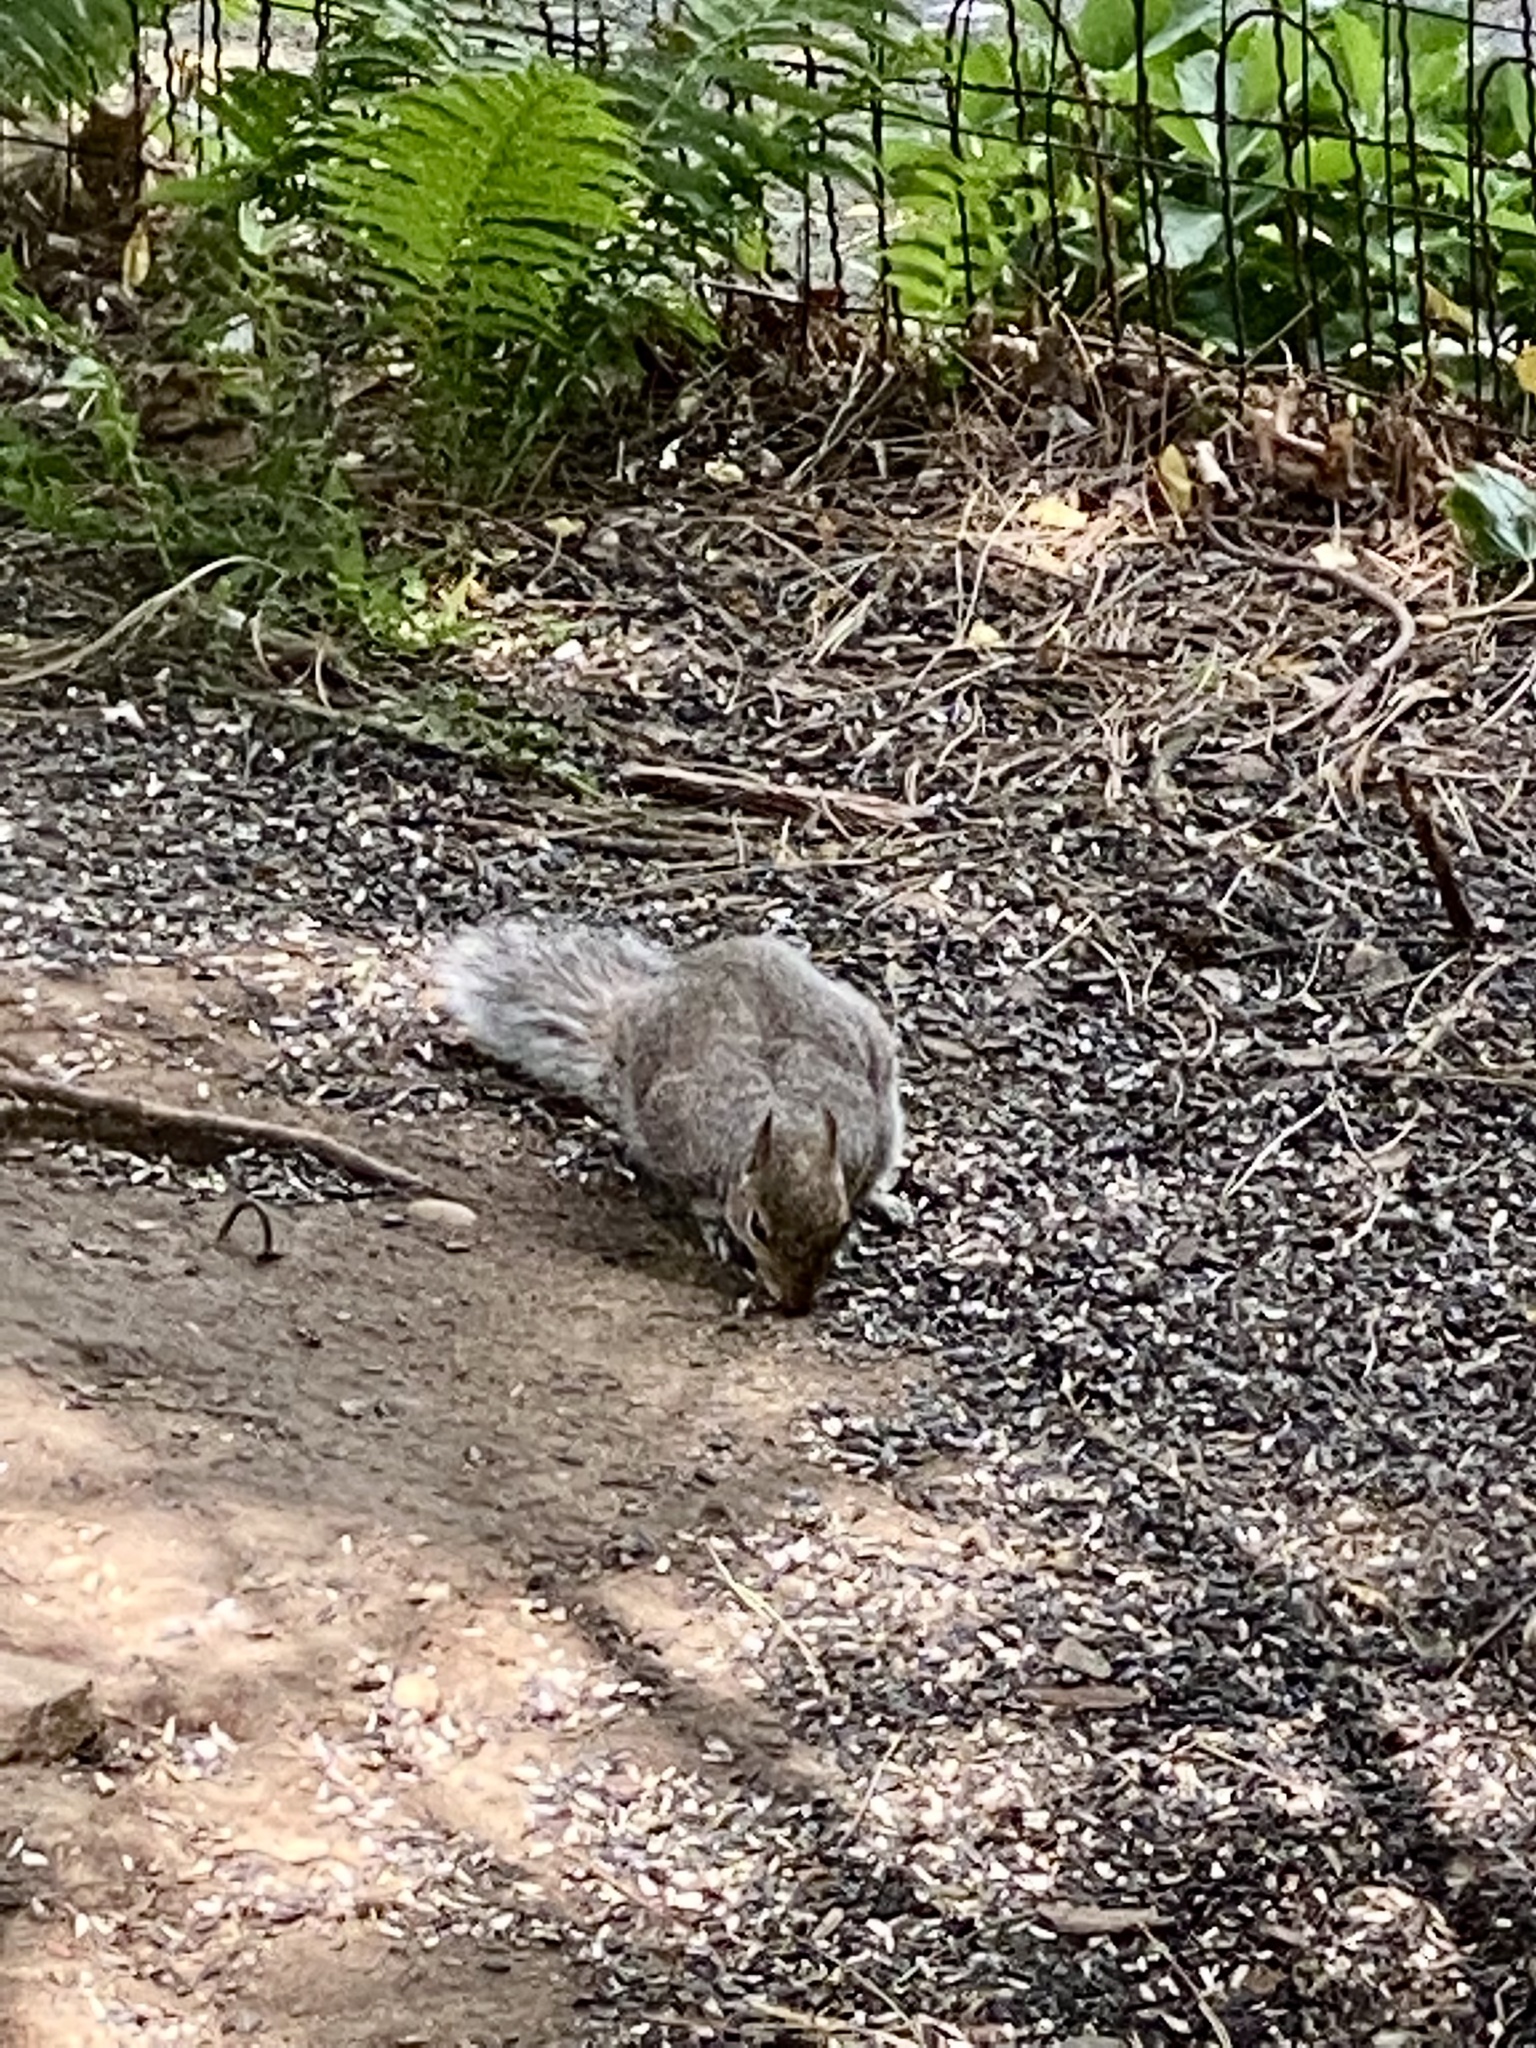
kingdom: Animalia
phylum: Chordata
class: Mammalia
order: Rodentia
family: Sciuridae
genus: Sciurus
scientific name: Sciurus carolinensis
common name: Eastern gray squirrel
